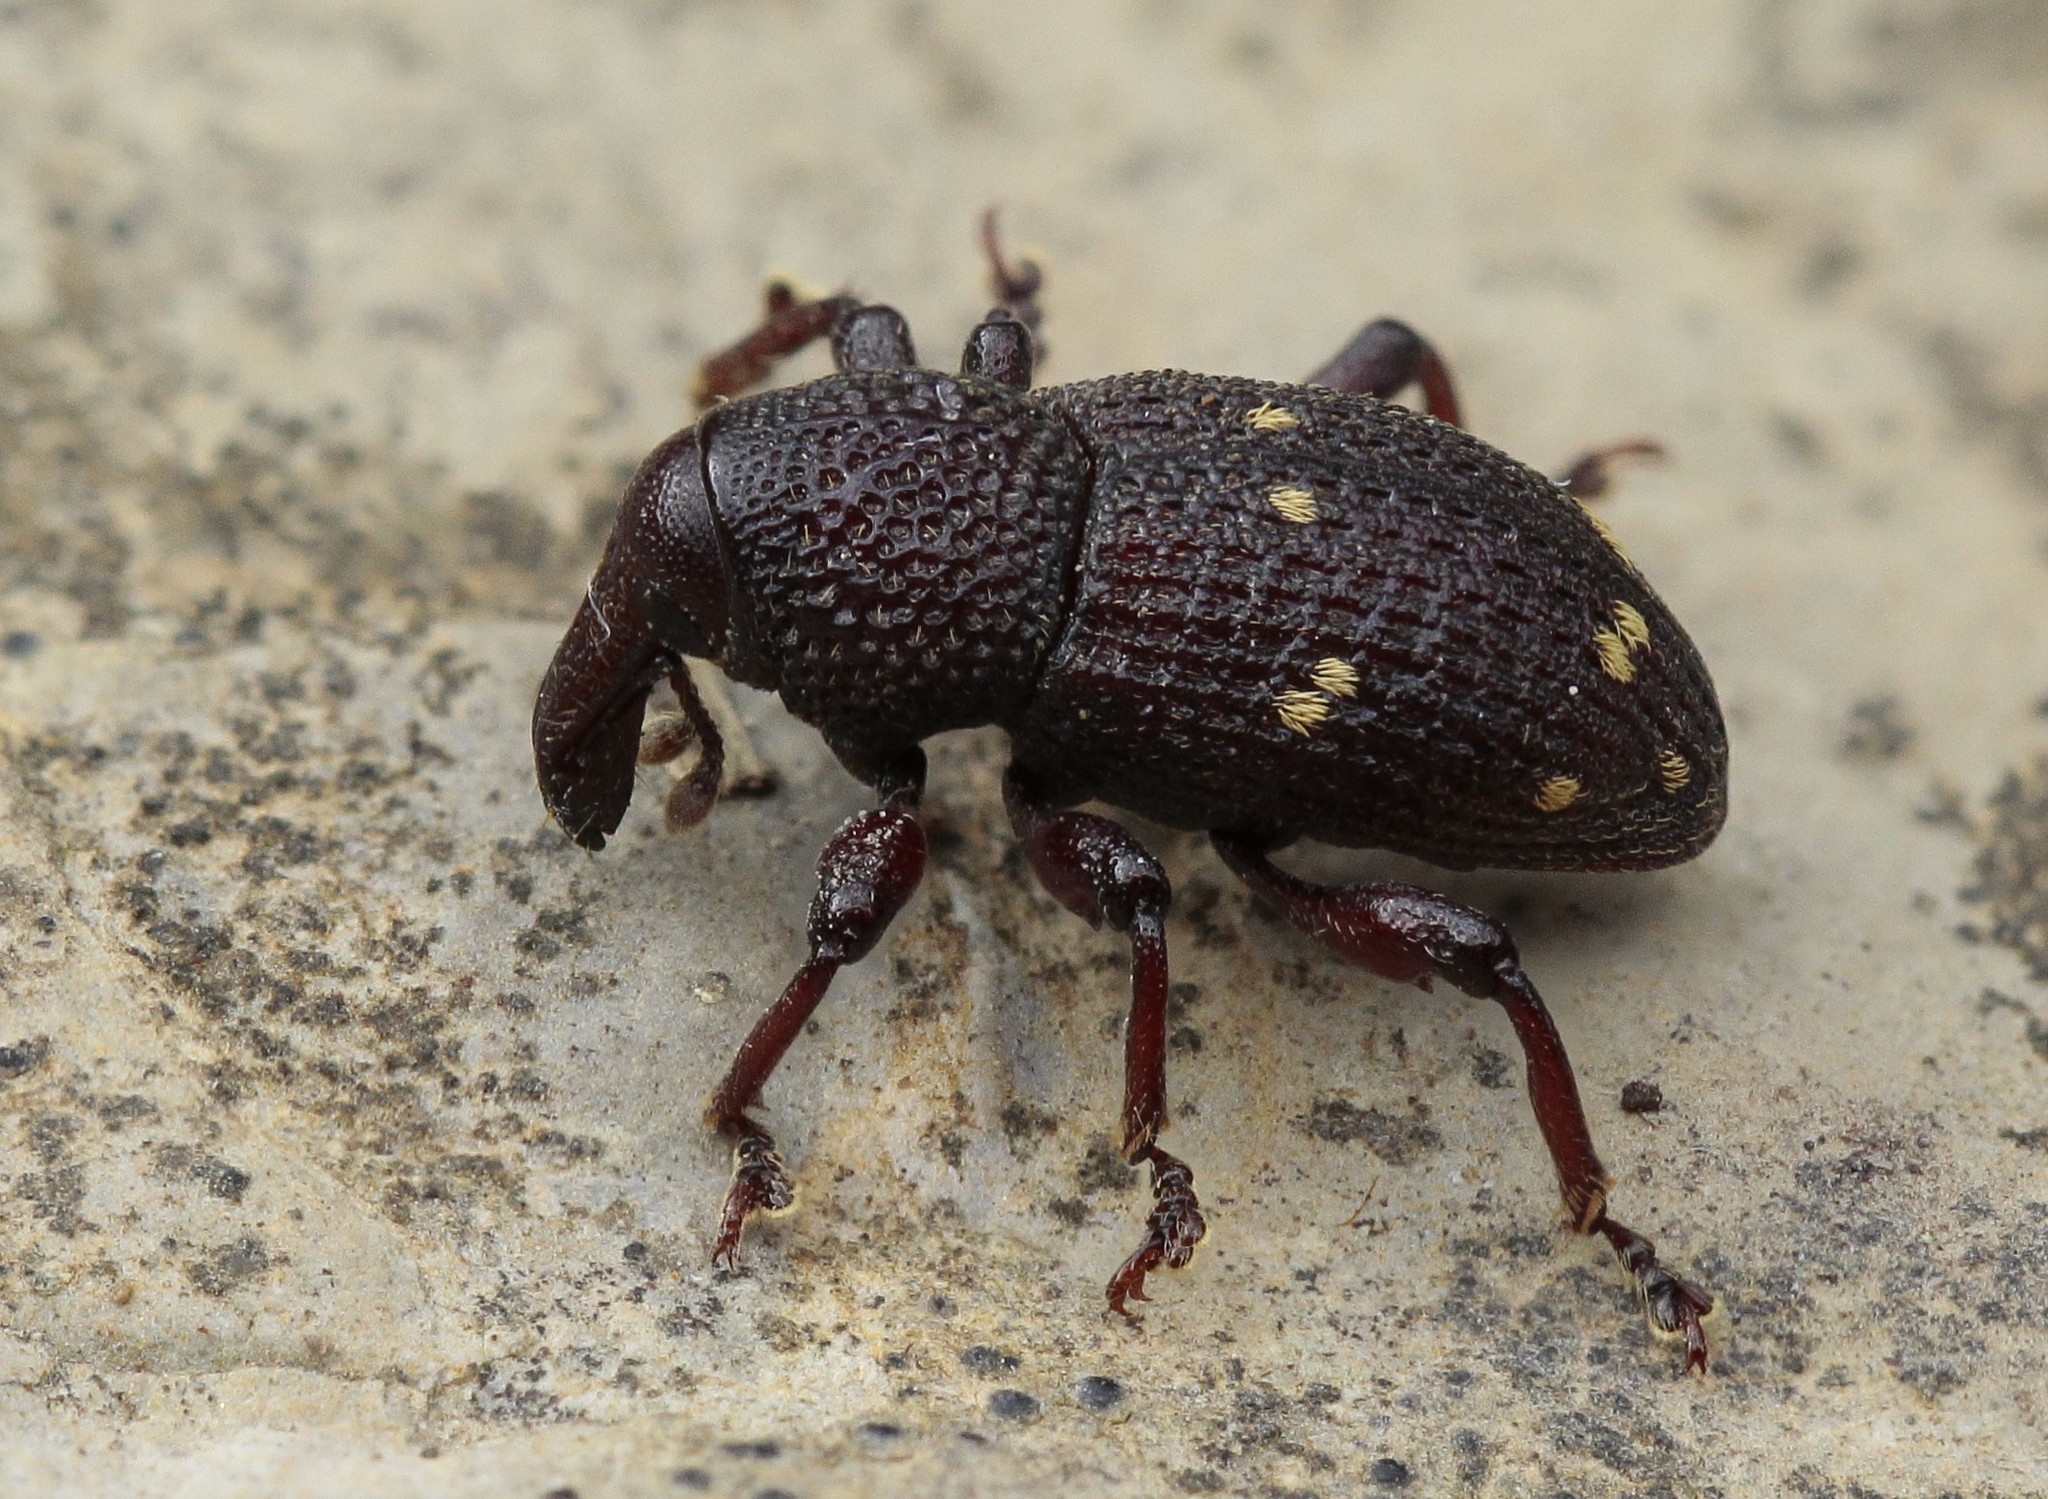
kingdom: Animalia
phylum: Arthropoda
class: Insecta
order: Coleoptera
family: Curculionidae
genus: Hylobius
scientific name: Hylobius verrucipennis
